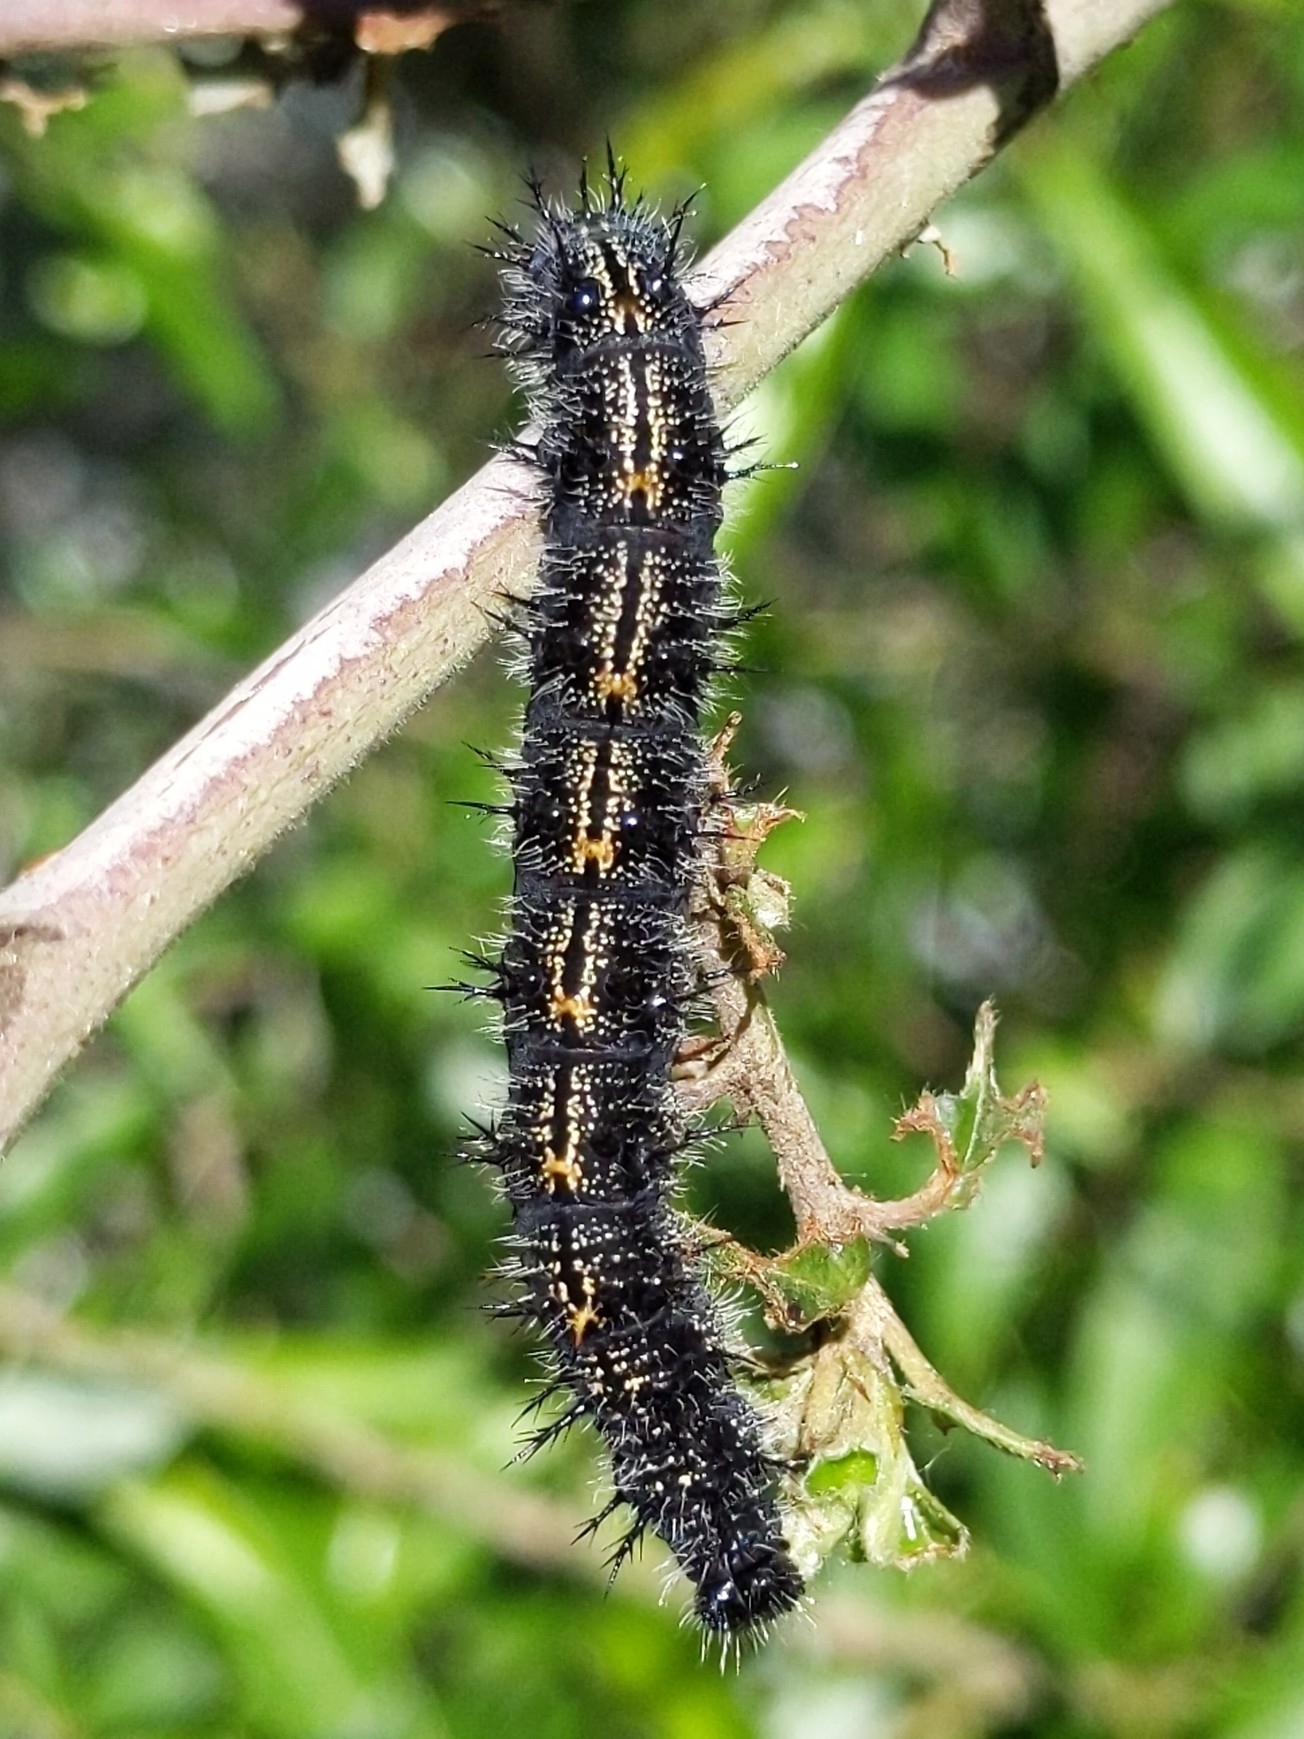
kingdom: Animalia
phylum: Arthropoda
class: Insecta
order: Lepidoptera
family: Nymphalidae
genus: Nymphalis
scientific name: Nymphalis californica
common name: California tortoiseshell
